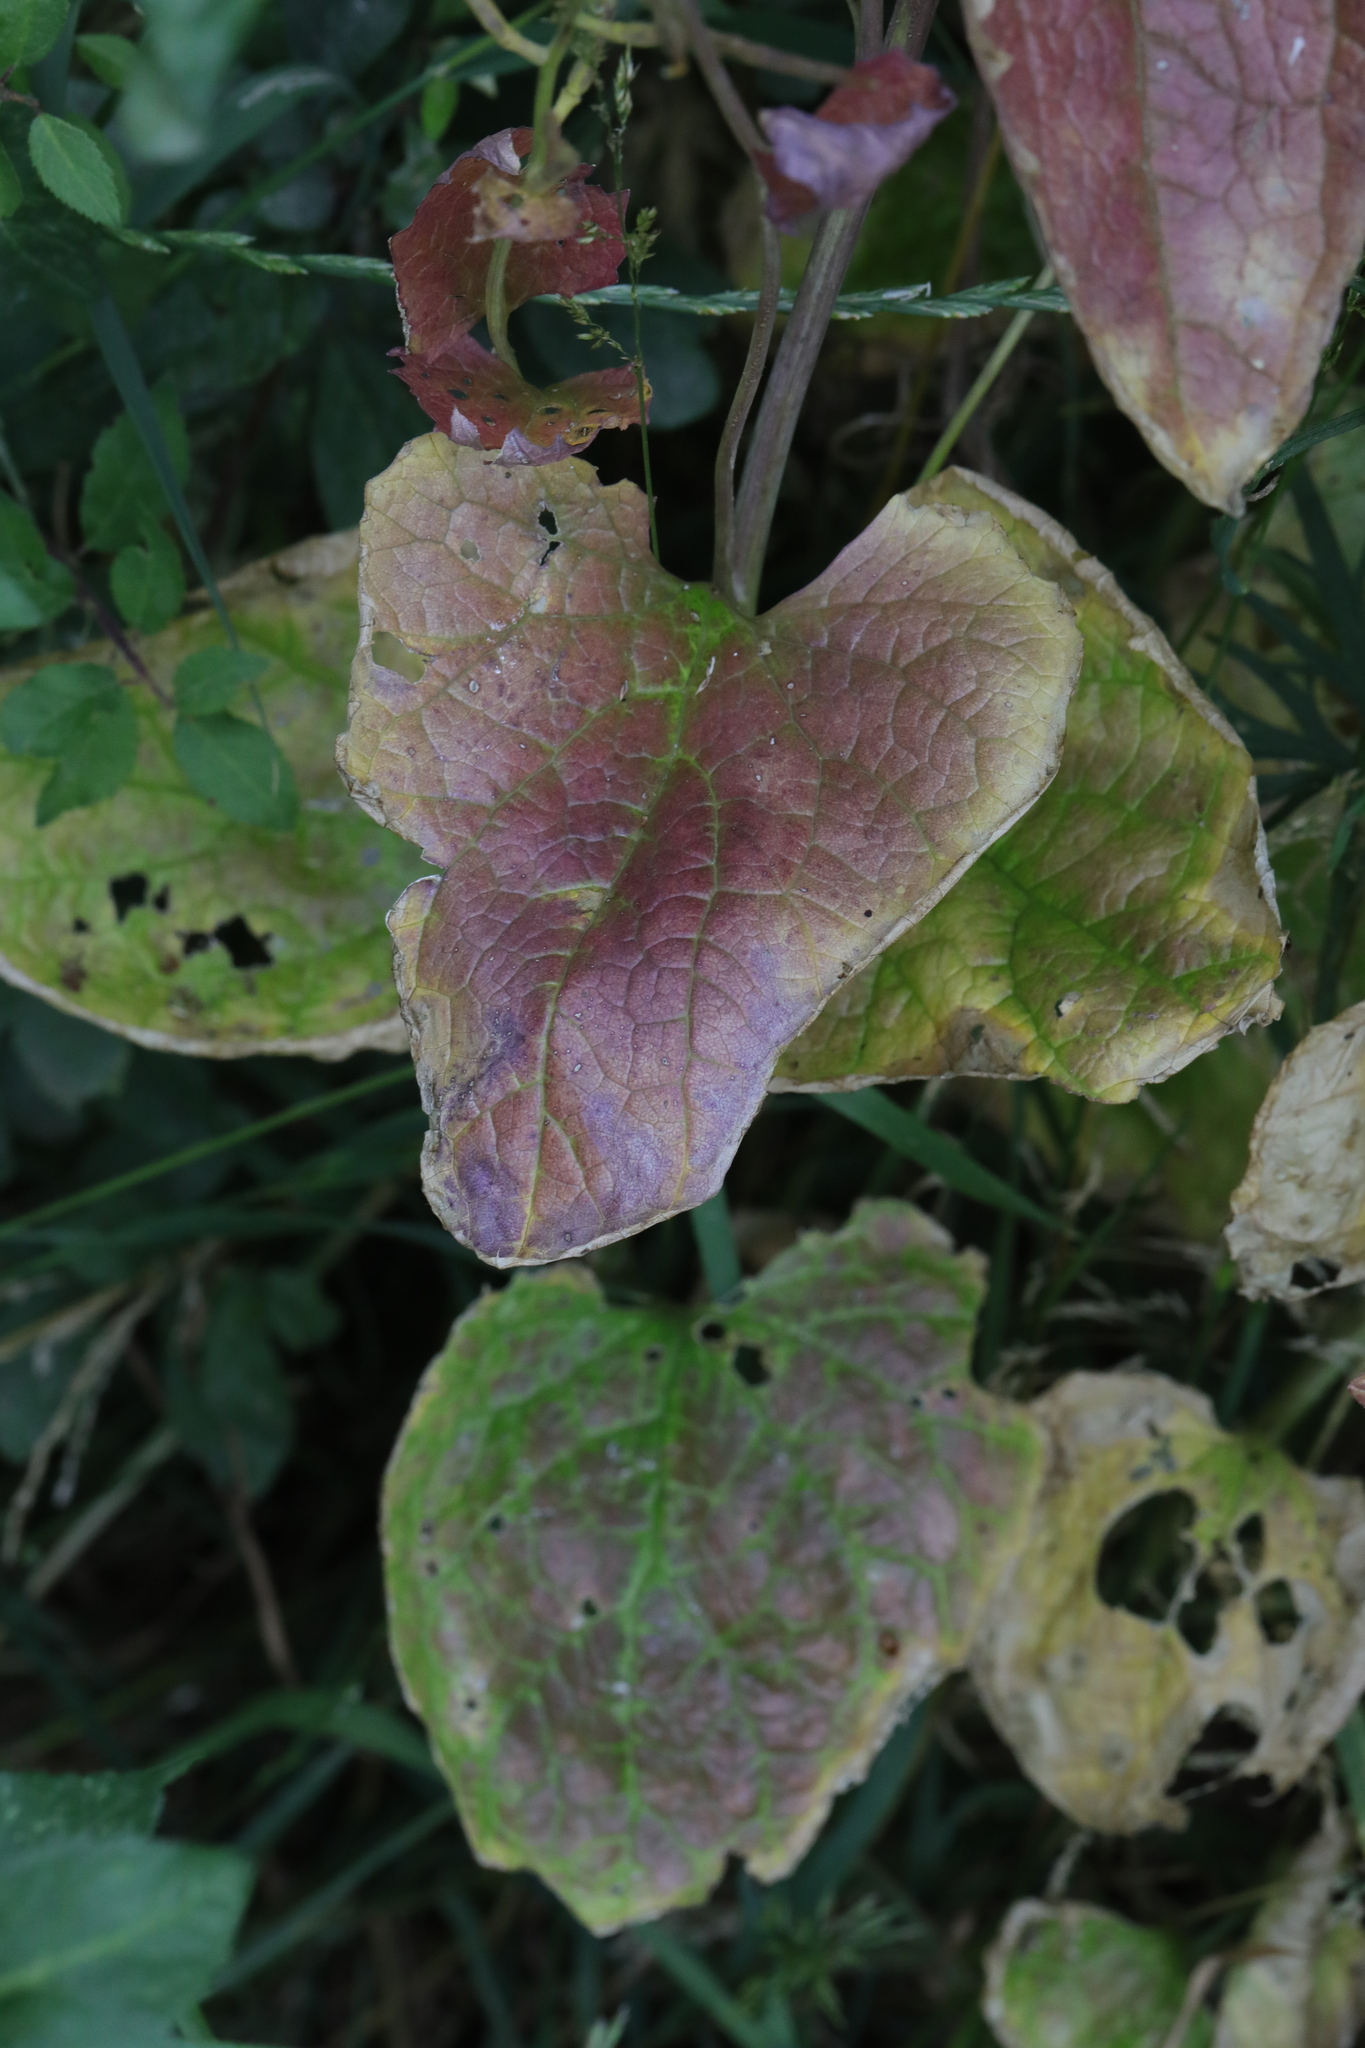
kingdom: Plantae
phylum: Tracheophyta
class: Magnoliopsida
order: Brassicales
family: Brassicaceae
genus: Alliaria
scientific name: Alliaria petiolata
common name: Garlic mustard
